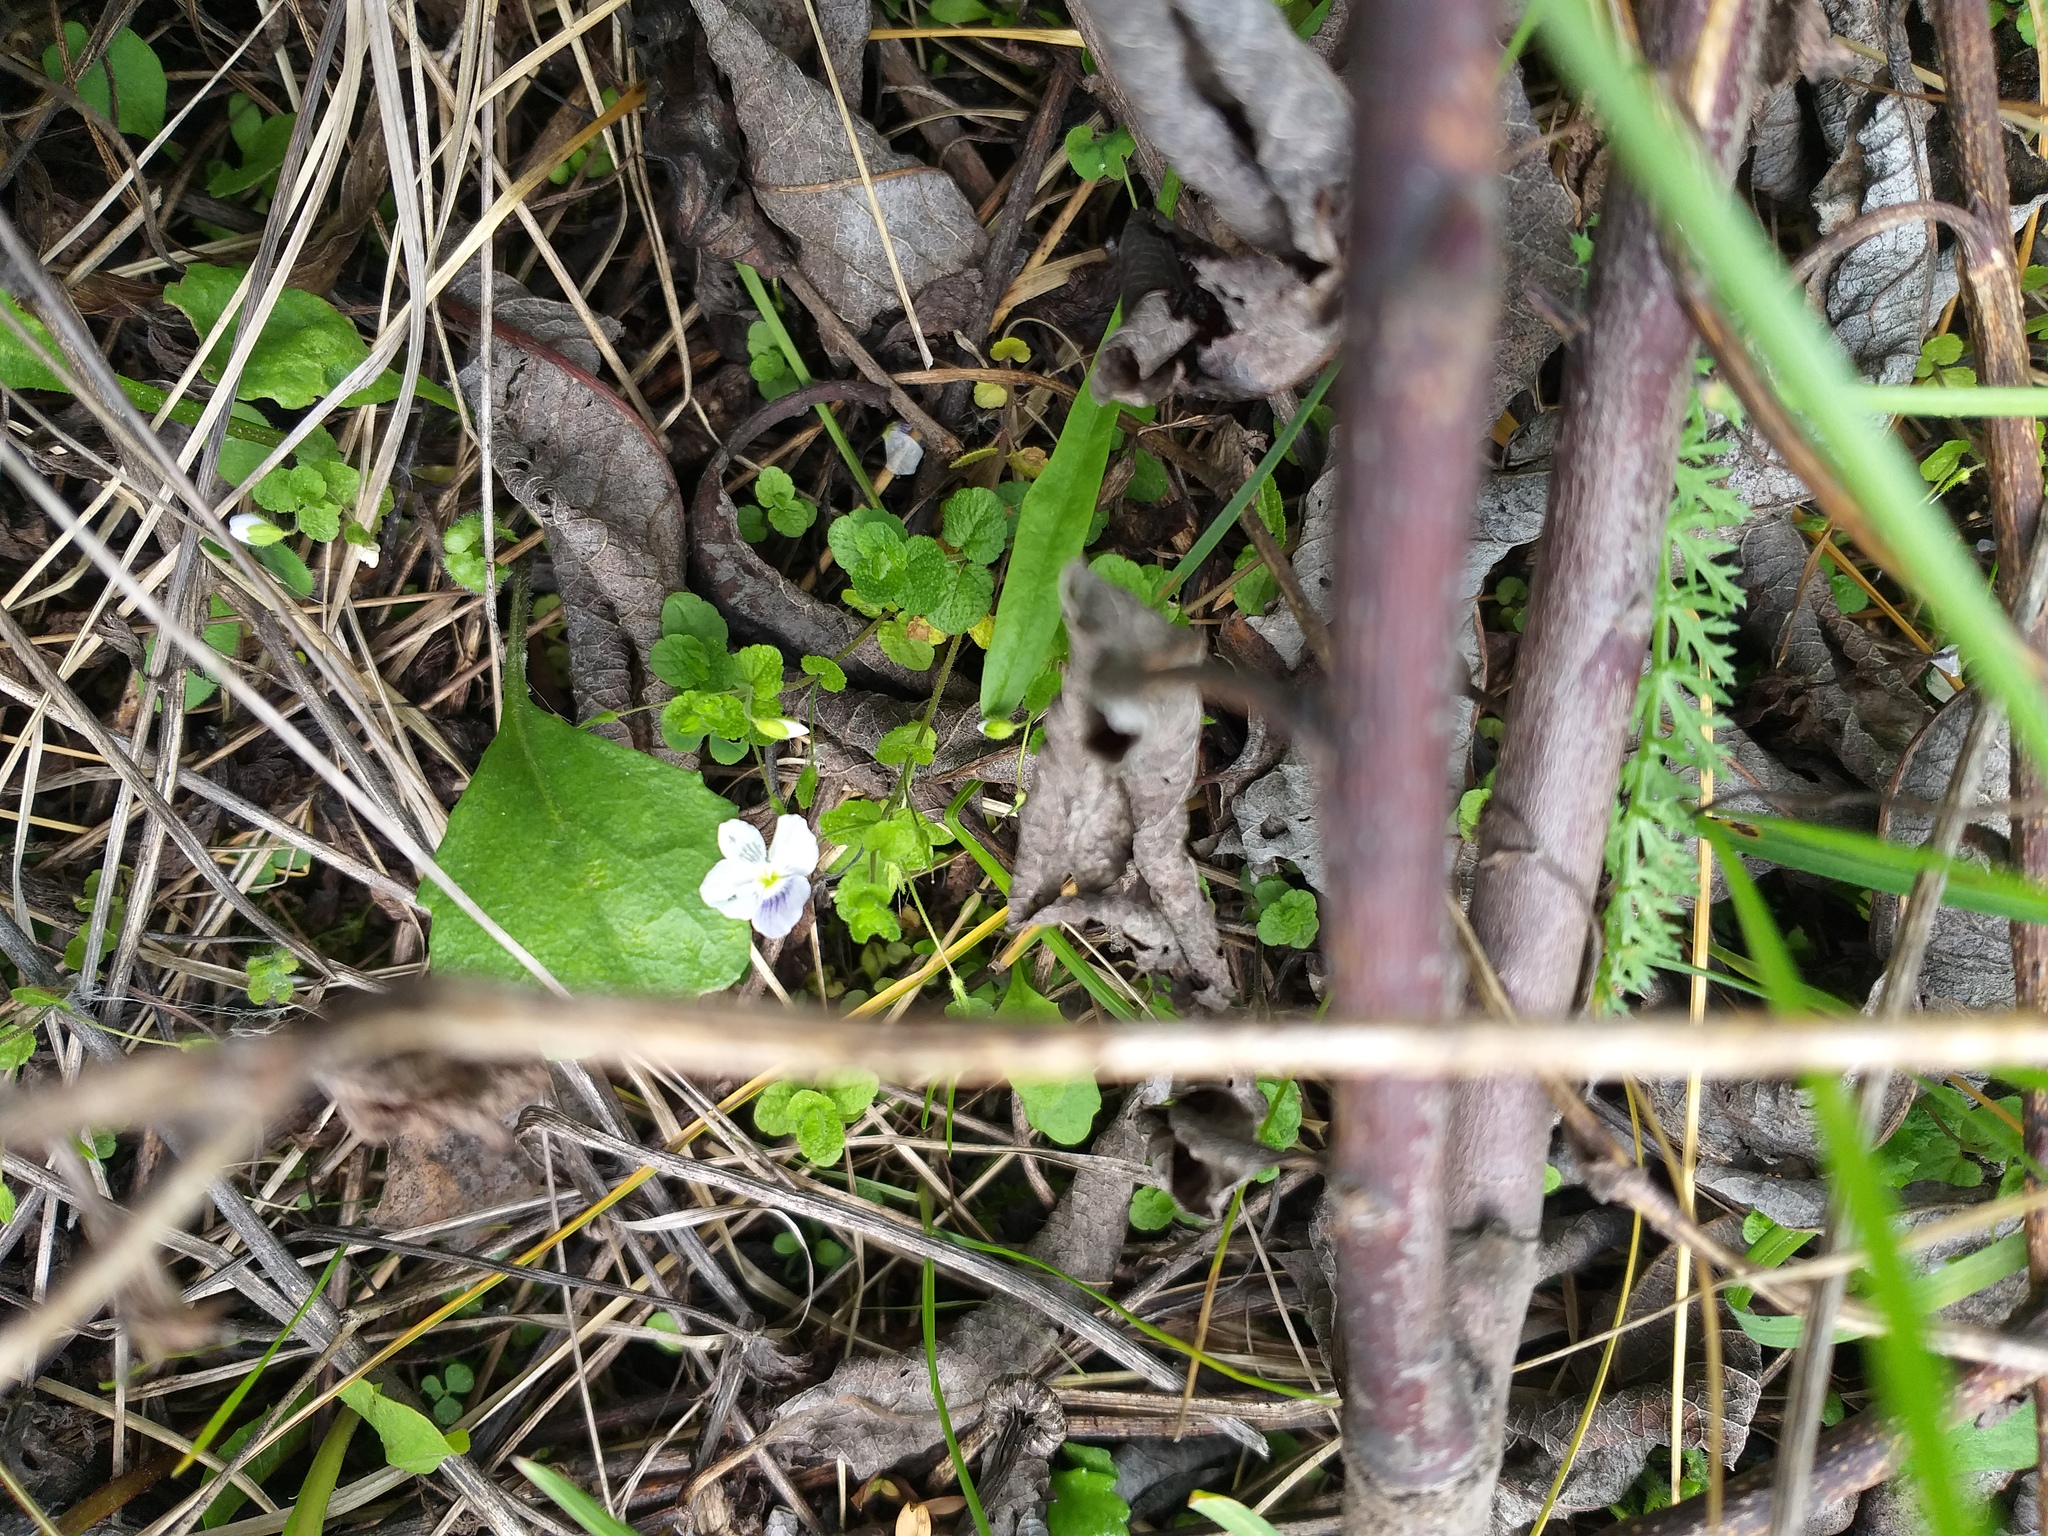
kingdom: Plantae
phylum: Tracheophyta
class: Magnoliopsida
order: Lamiales
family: Plantaginaceae
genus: Veronica
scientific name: Veronica filiformis
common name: Slender speedwell
